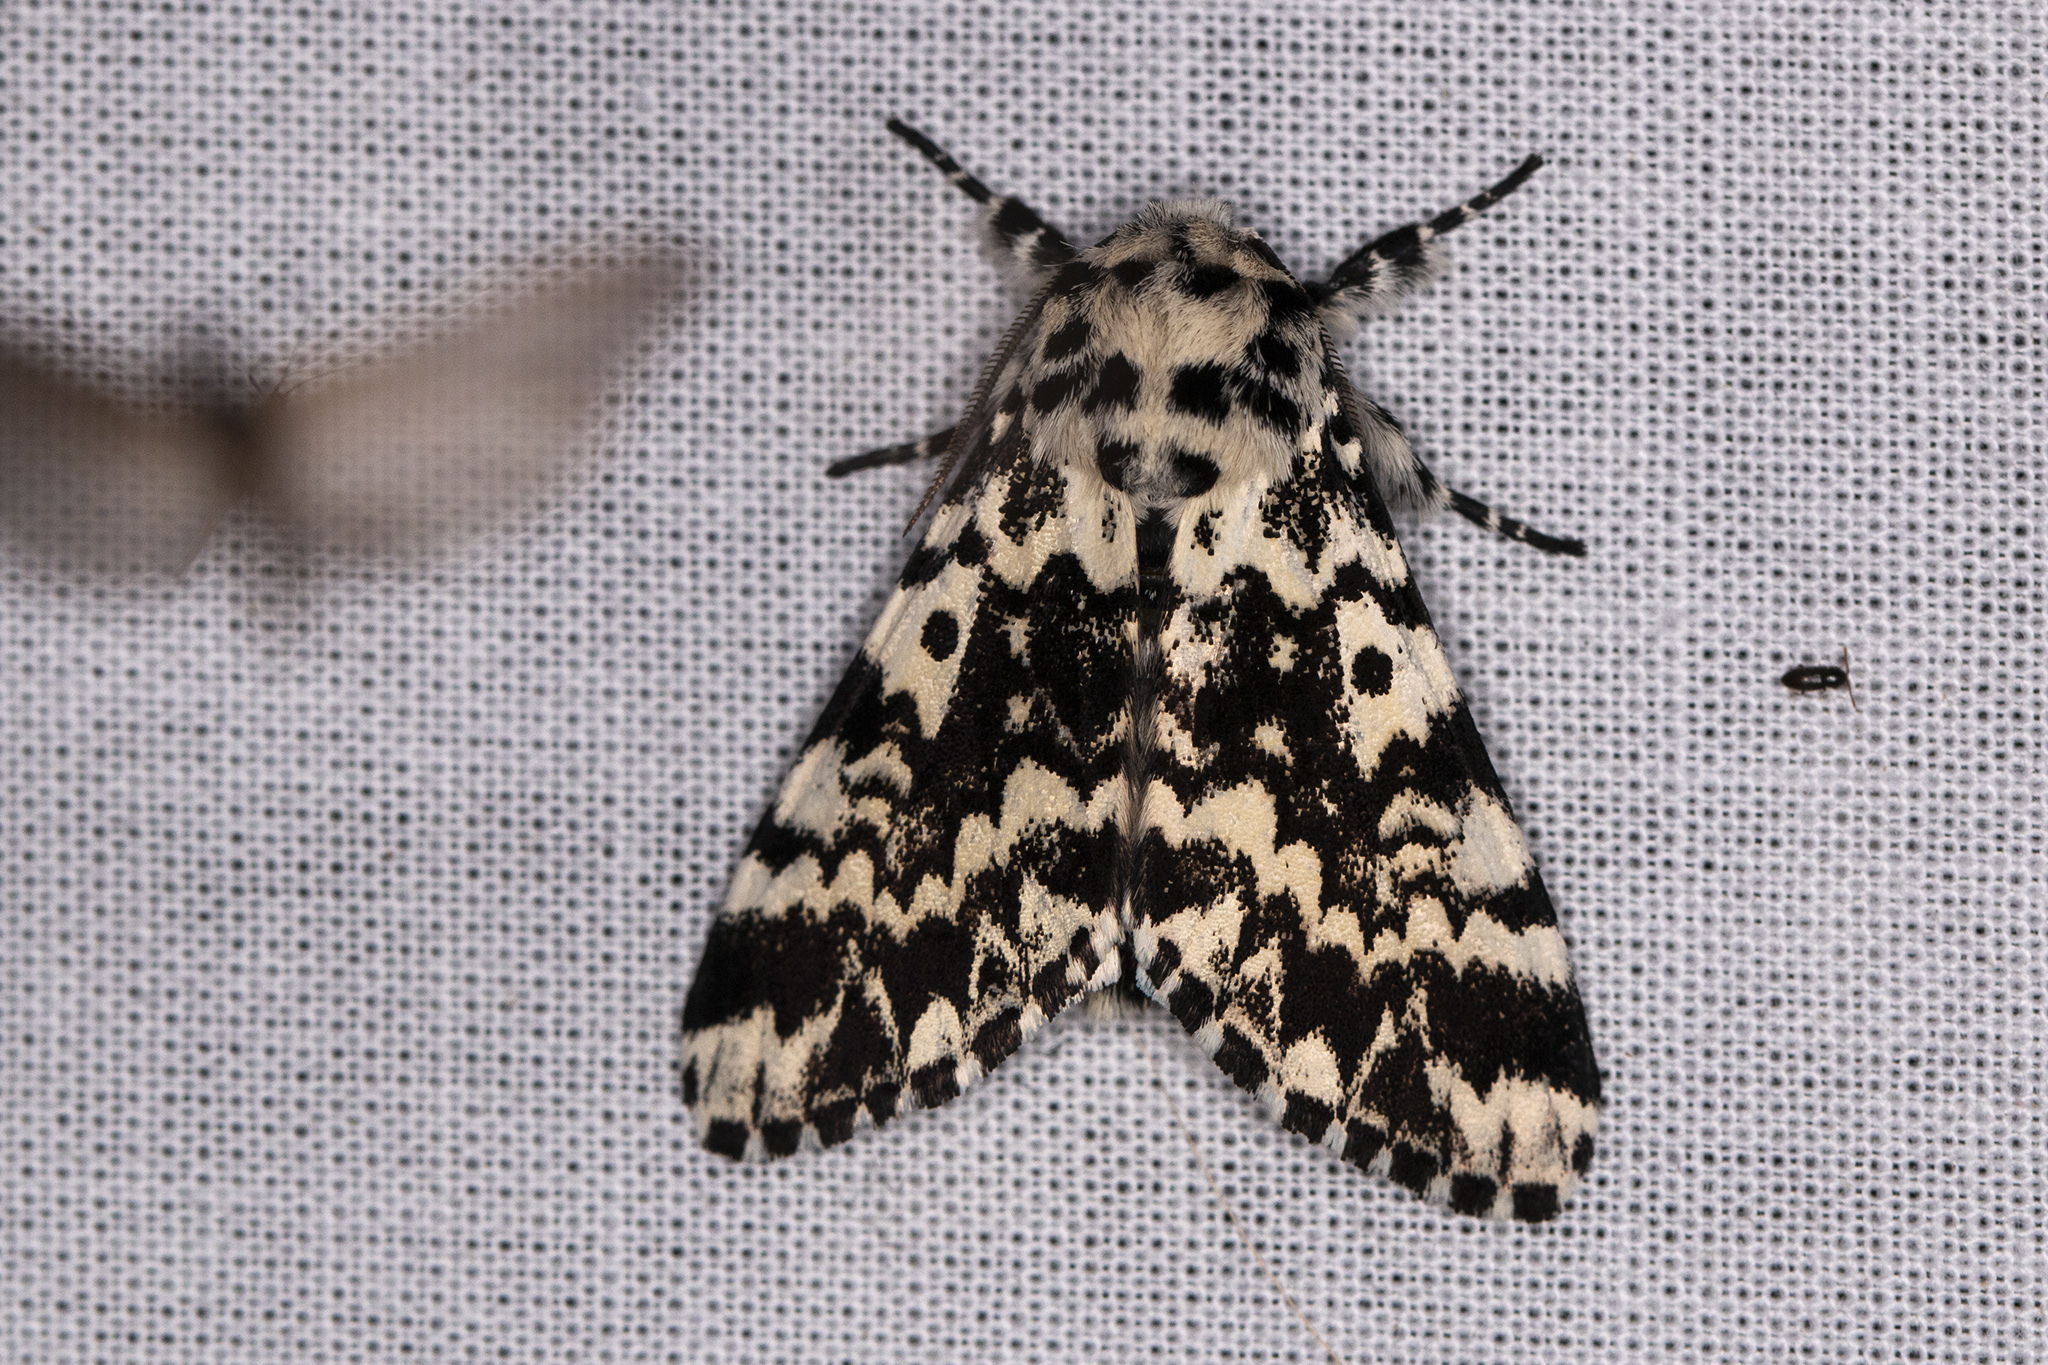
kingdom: Animalia
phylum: Arthropoda
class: Insecta
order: Lepidoptera
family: Noctuidae
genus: Panthea
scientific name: Panthea coenobita
